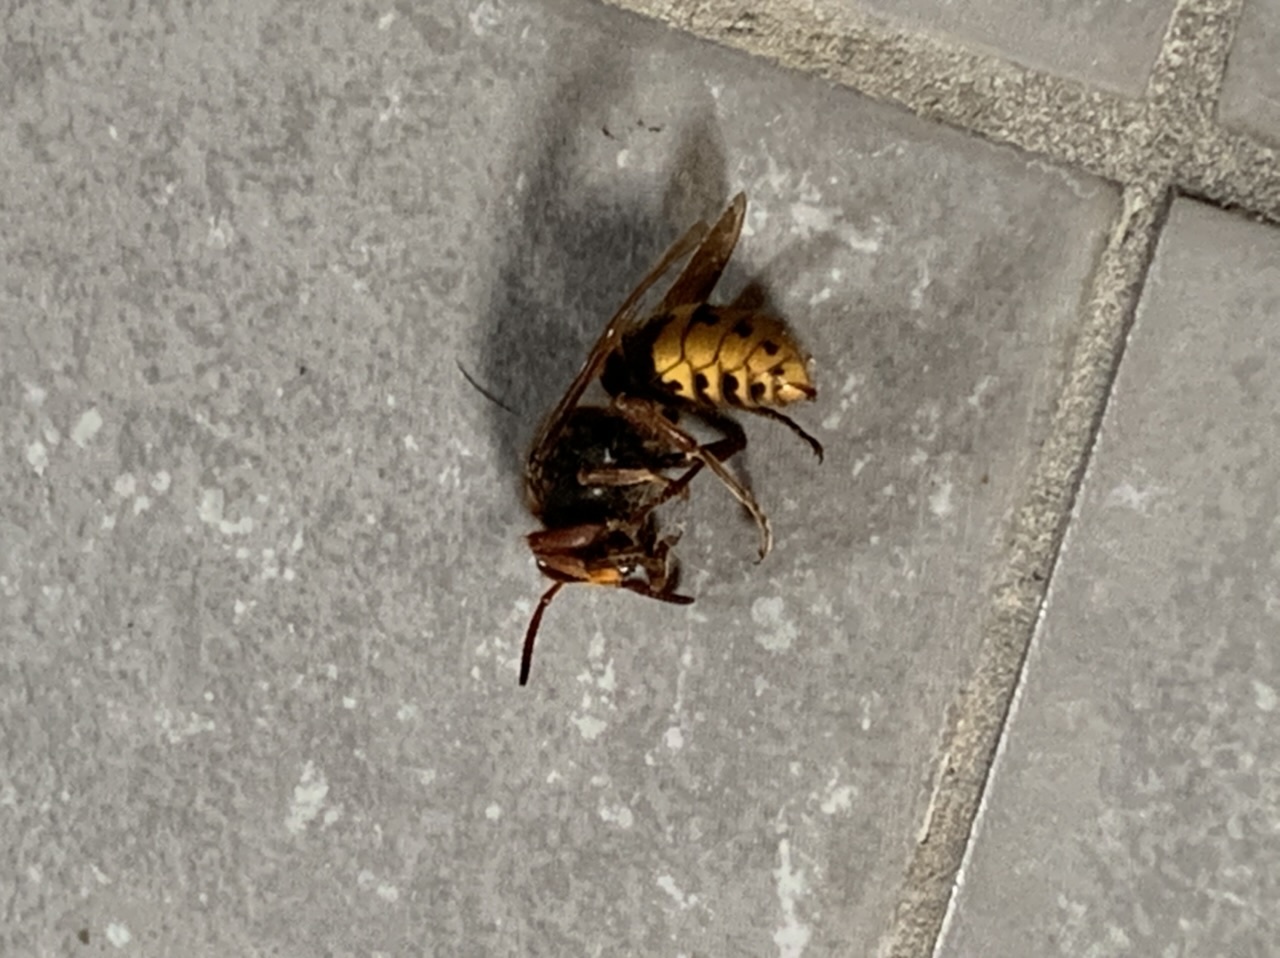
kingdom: Animalia
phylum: Arthropoda
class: Insecta
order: Hymenoptera
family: Vespidae
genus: Vespa
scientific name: Vespa crabro
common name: Hornet
